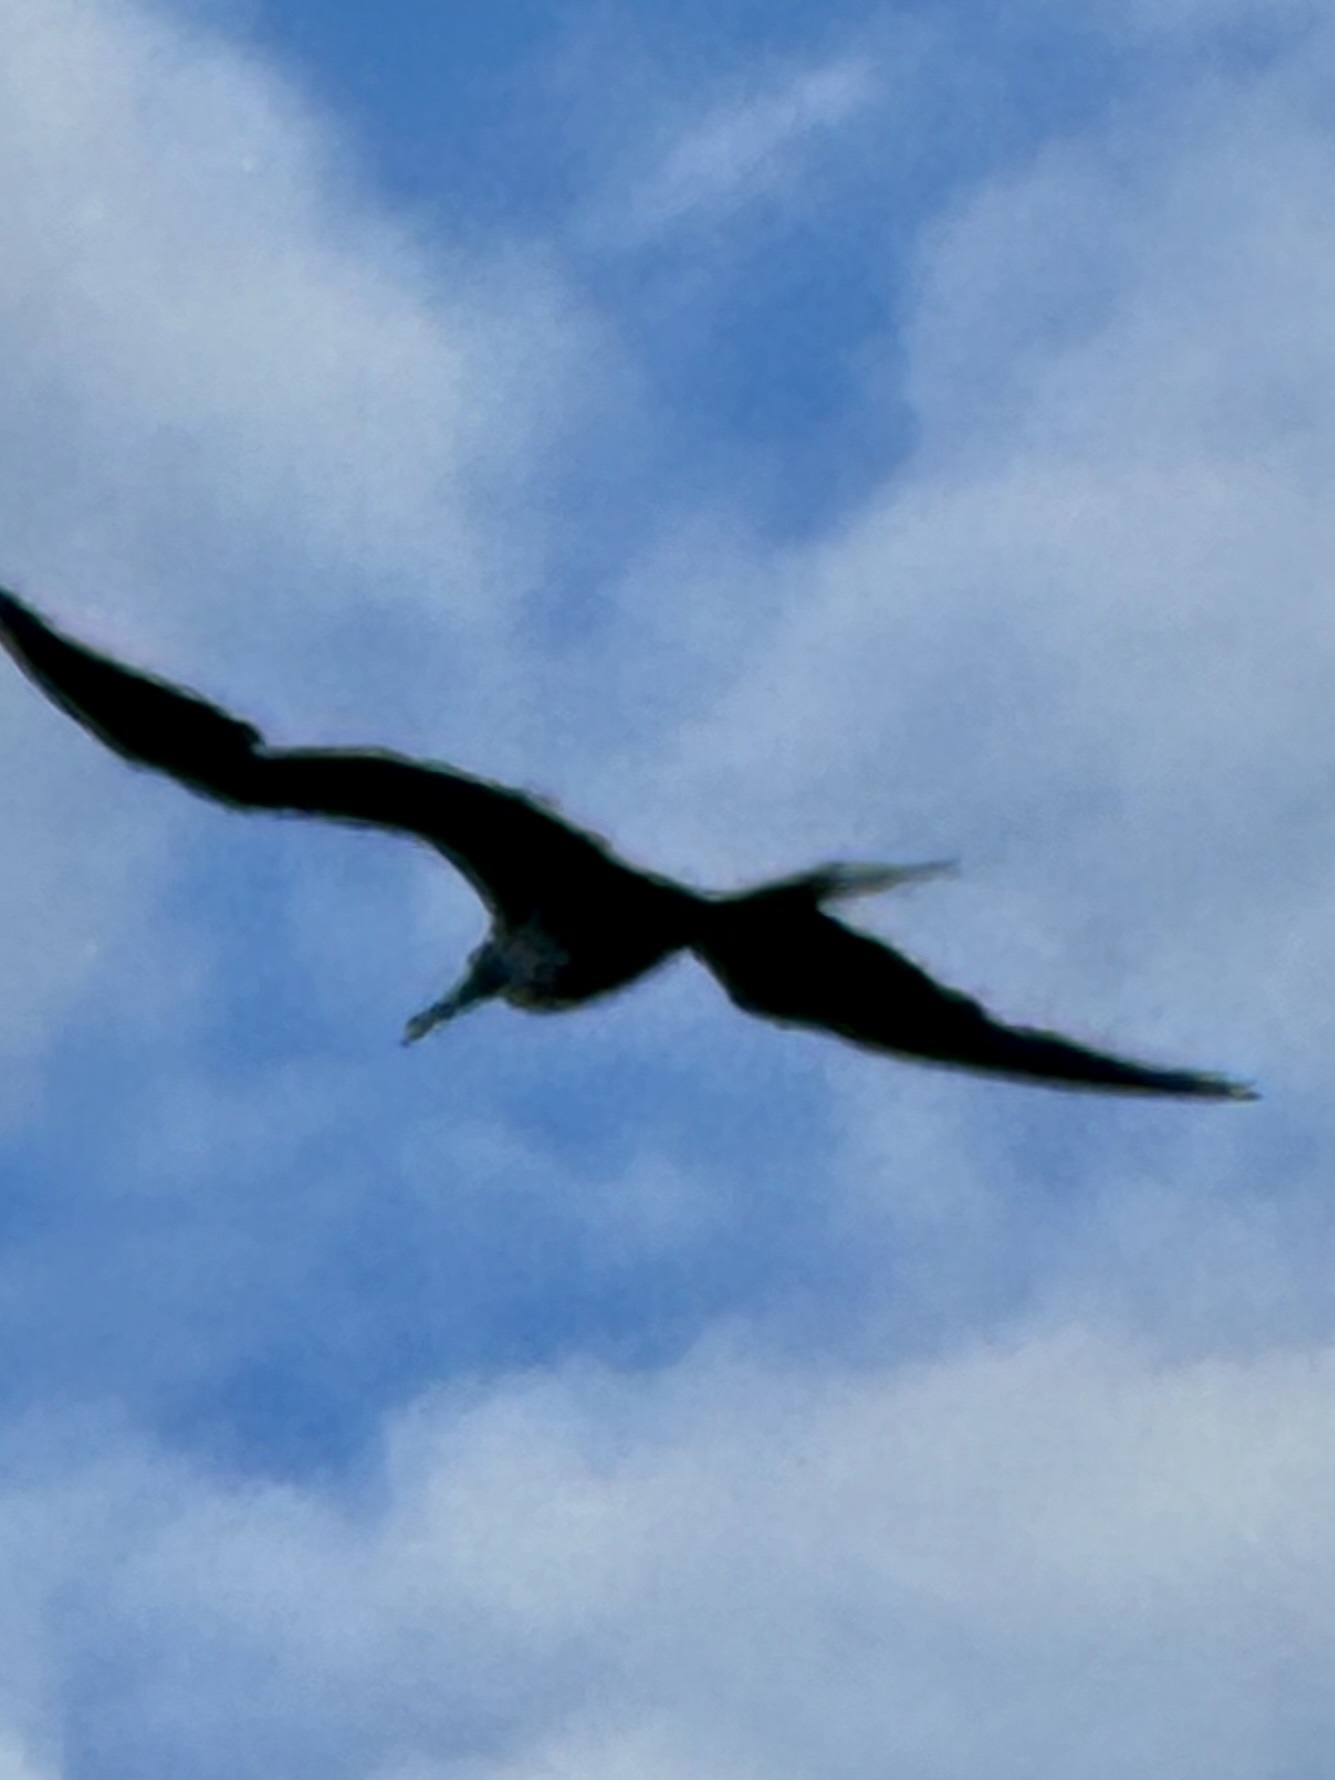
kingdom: Animalia
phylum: Chordata
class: Aves
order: Suliformes
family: Fregatidae
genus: Fregata
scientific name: Fregata magnificens
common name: Magnificent frigatebird
